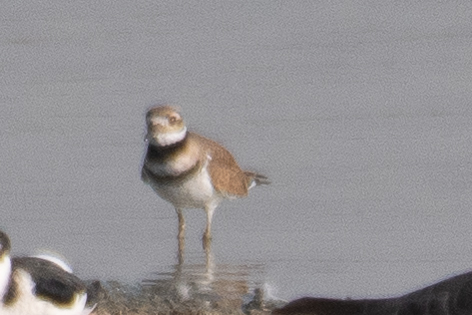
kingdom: Animalia
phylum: Chordata
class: Aves
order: Charadriiformes
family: Charadriidae
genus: Charadrius
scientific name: Charadrius vociferus
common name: Killdeer
